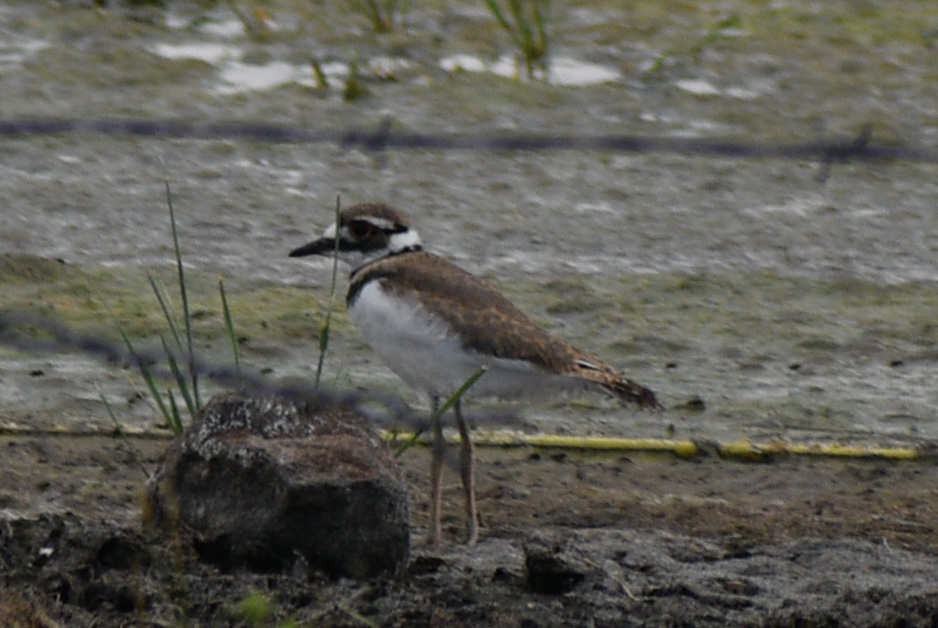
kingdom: Animalia
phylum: Chordata
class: Aves
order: Charadriiformes
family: Charadriidae
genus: Charadrius
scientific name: Charadrius vociferus
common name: Killdeer
